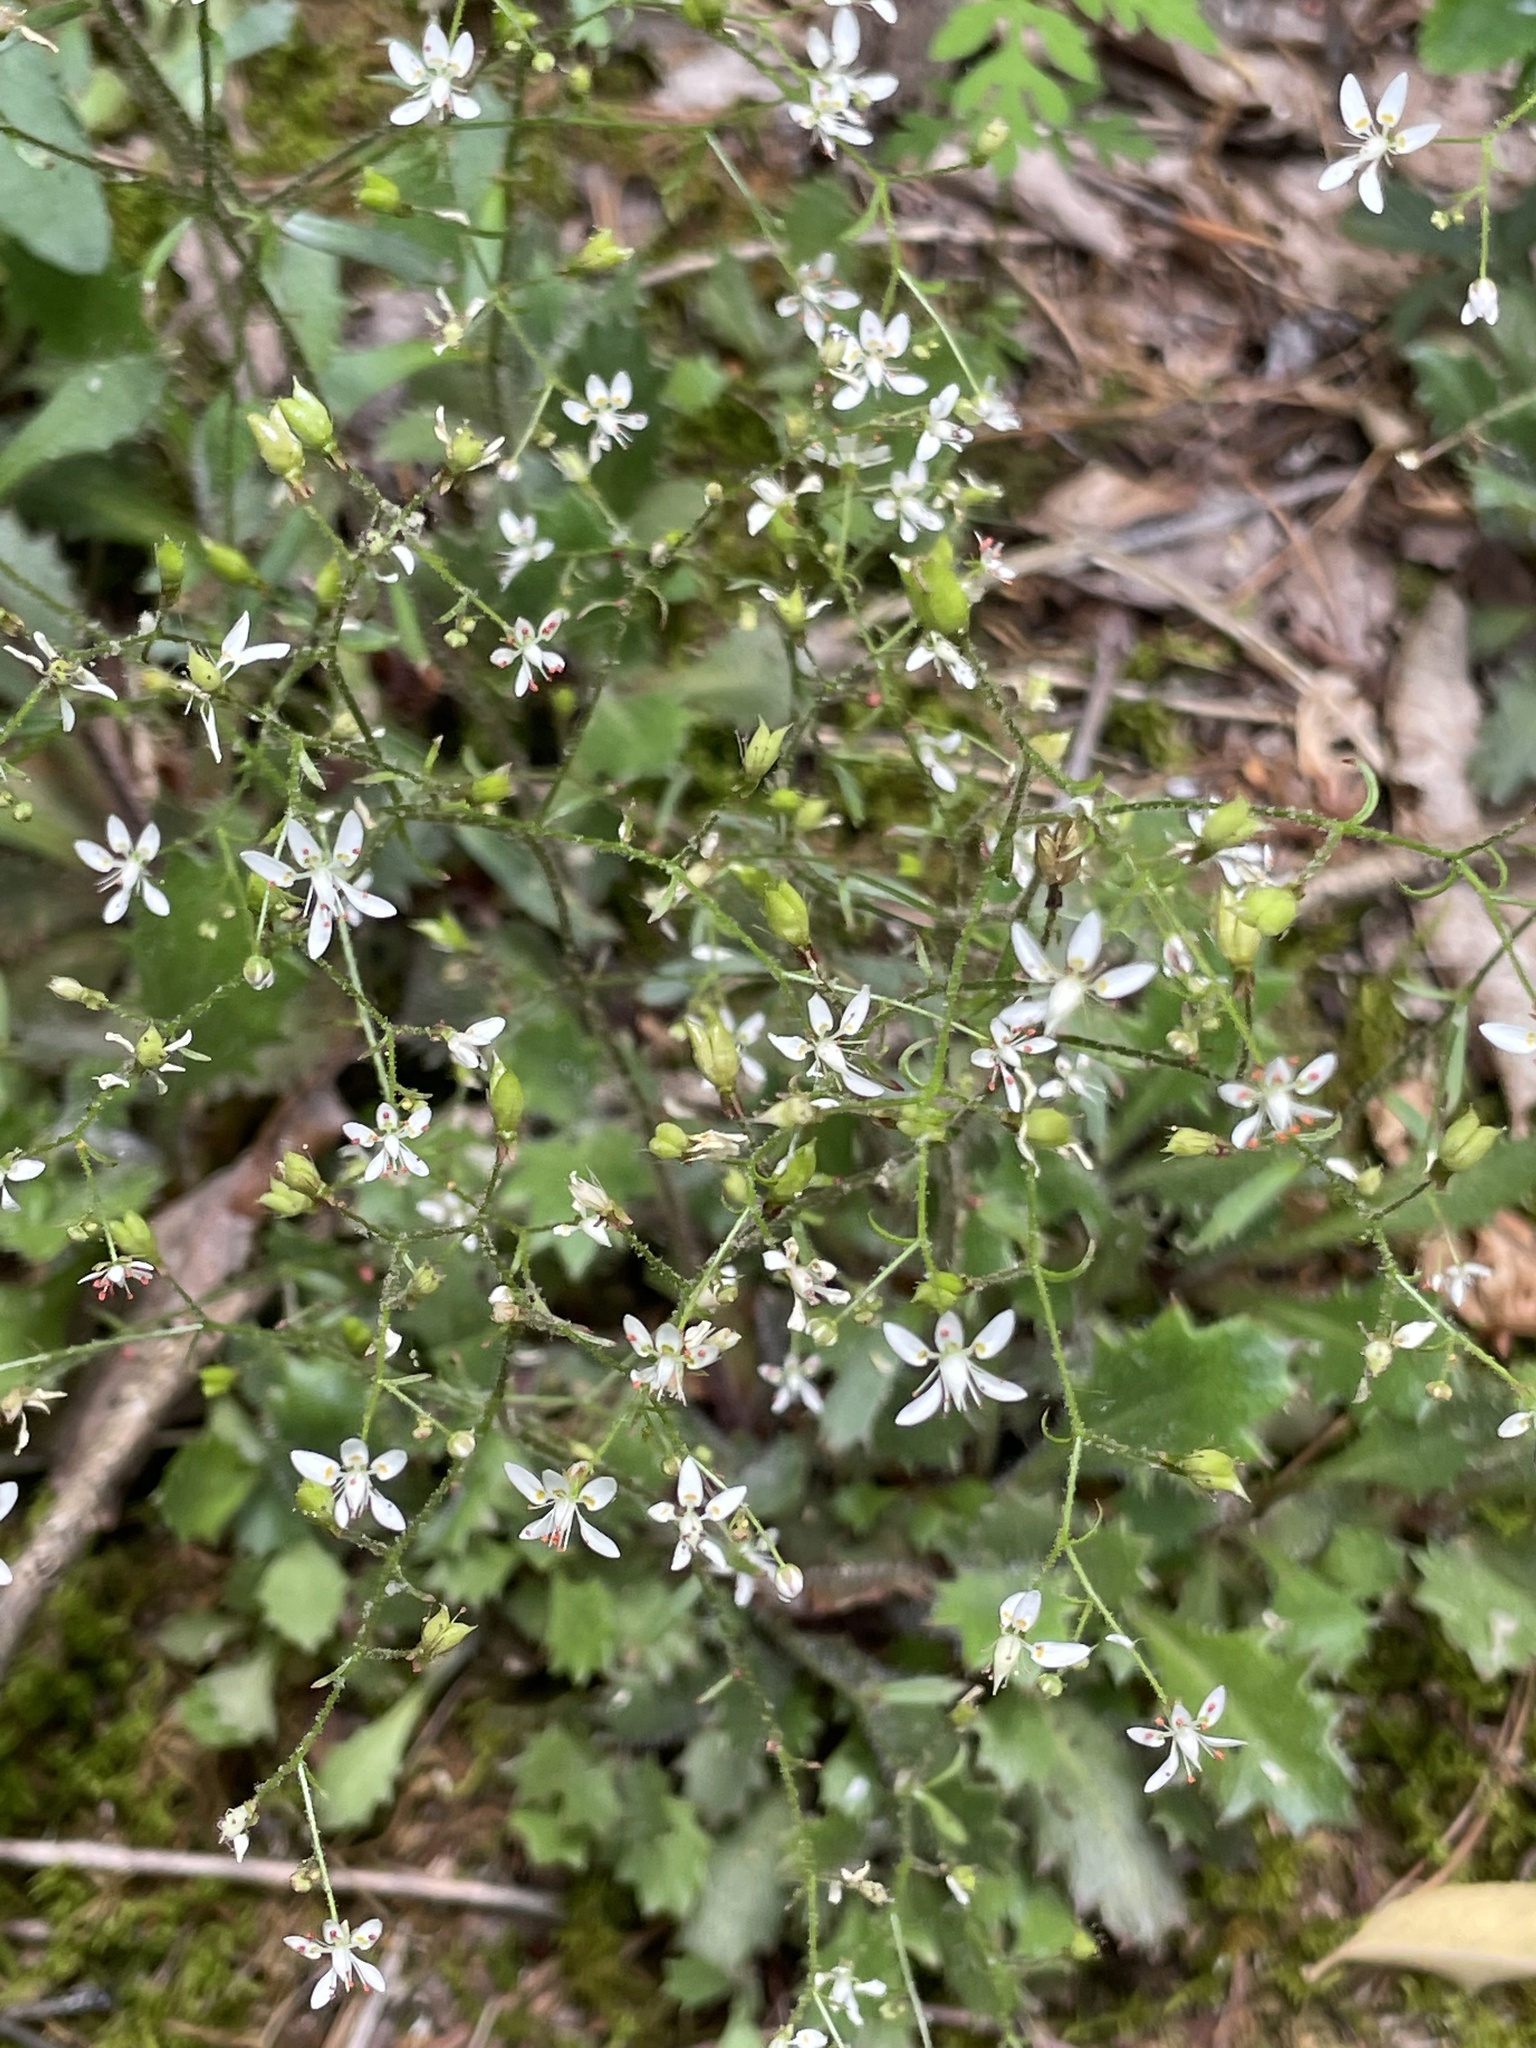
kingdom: Plantae
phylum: Tracheophyta
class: Magnoliopsida
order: Saxifragales
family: Saxifragaceae
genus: Micranthes
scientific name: Micranthes petiolaris
